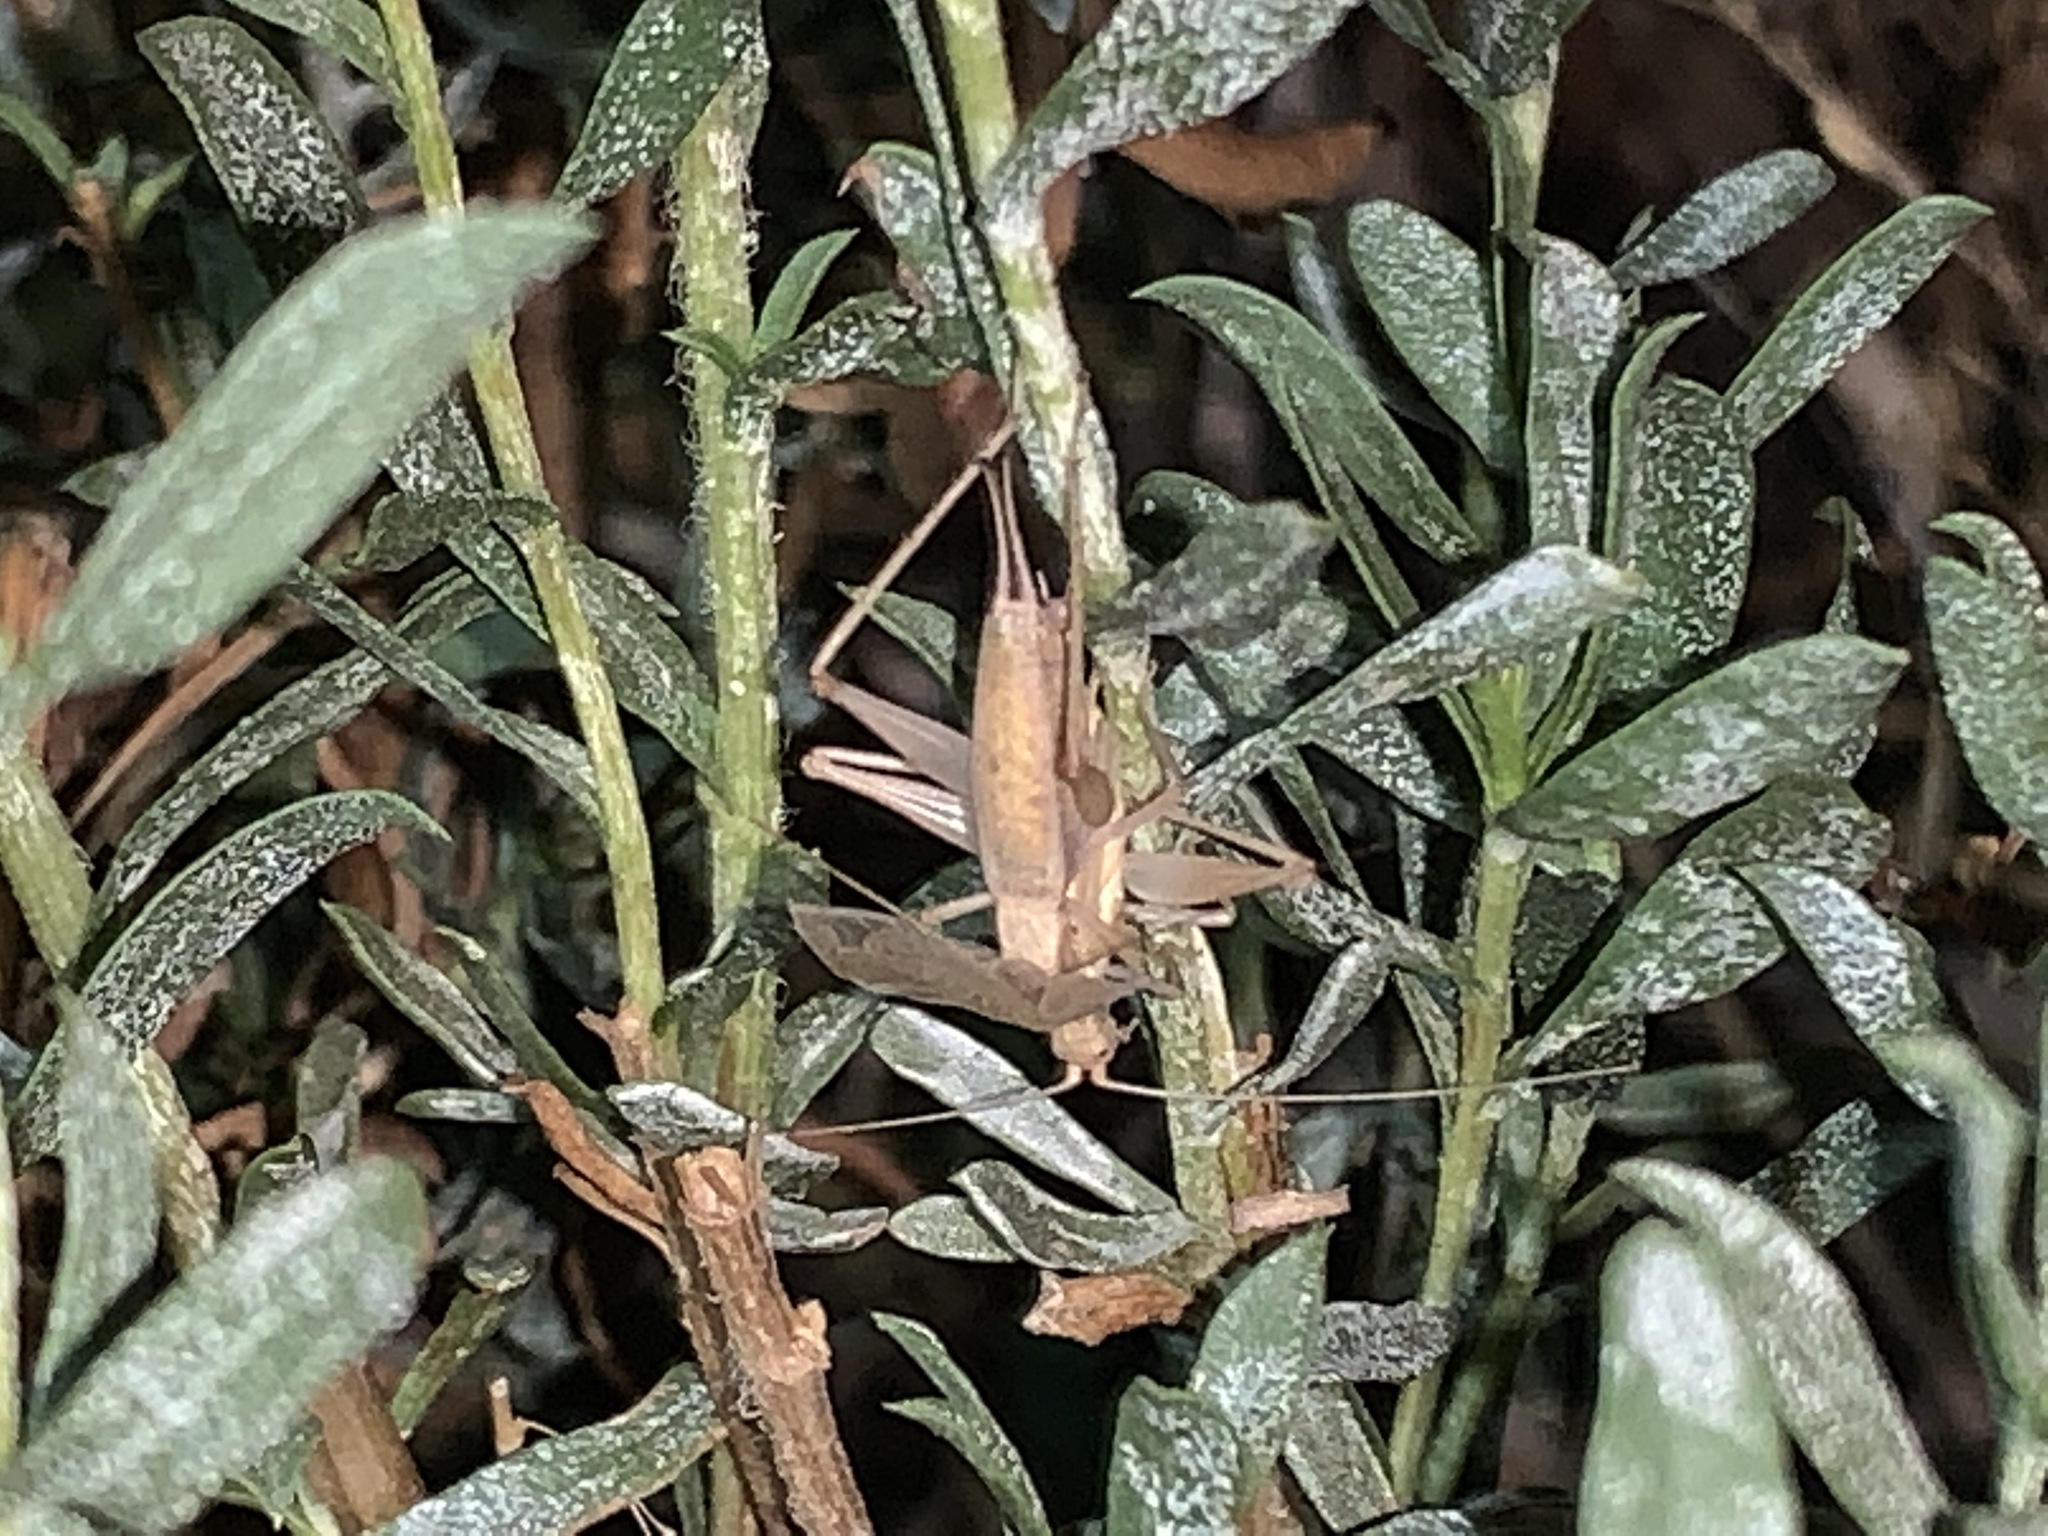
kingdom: Animalia
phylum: Arthropoda
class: Insecta
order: Orthoptera
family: Gryllidae
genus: Oecanthus
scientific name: Oecanthus californicus
